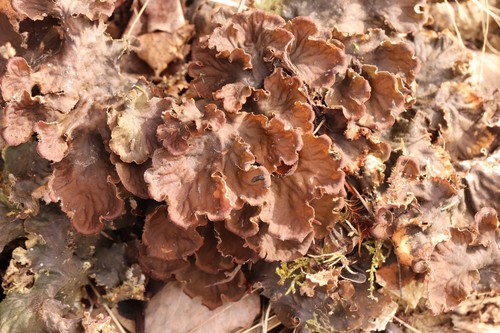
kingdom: Fungi
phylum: Ascomycota
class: Lecanoromycetes
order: Peltigerales
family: Peltigeraceae
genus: Peltigera
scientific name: Peltigera
